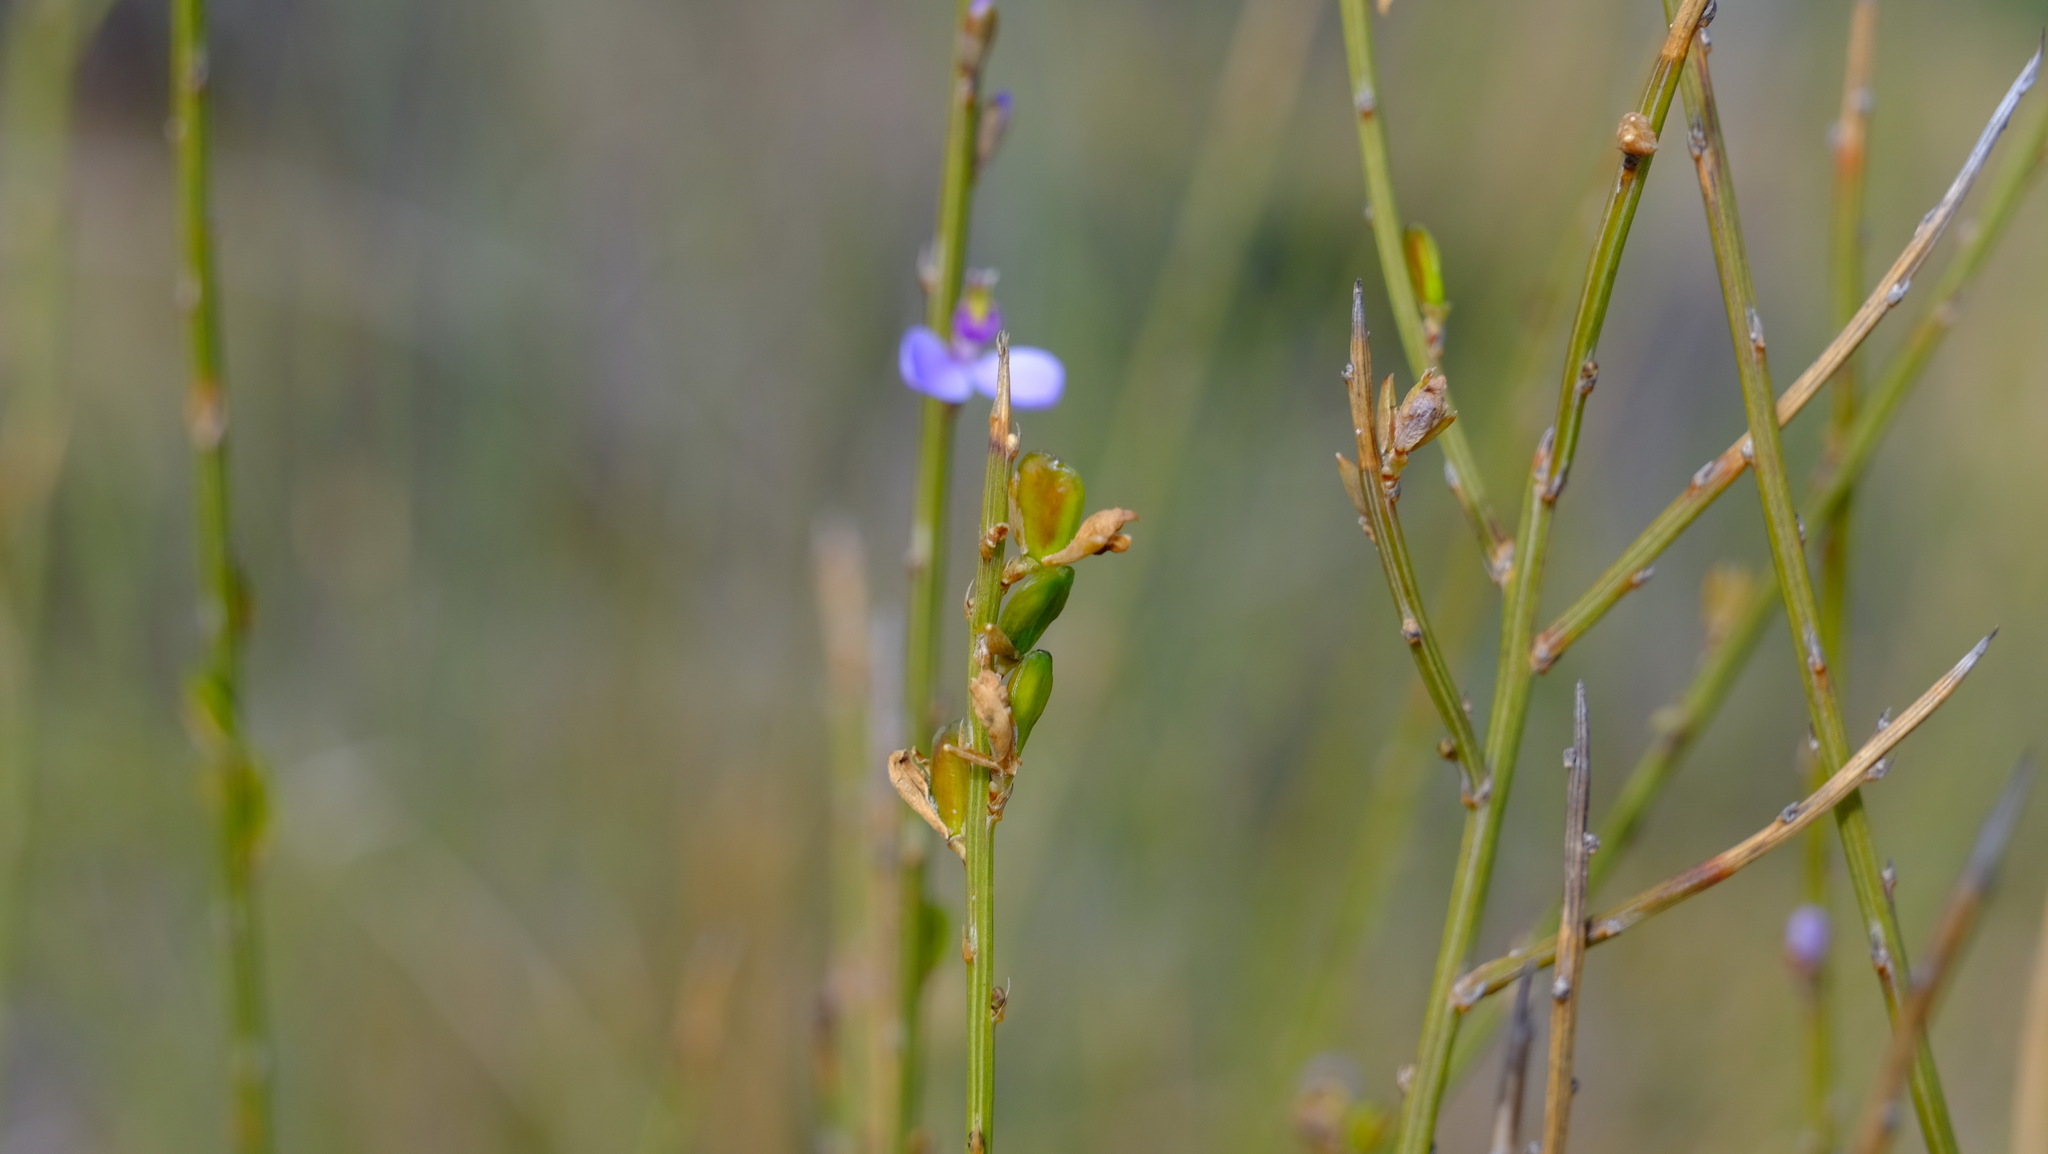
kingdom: Plantae
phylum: Tracheophyta
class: Magnoliopsida
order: Fabales
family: Polygalaceae
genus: Comesperma
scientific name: Comesperma scoparium
